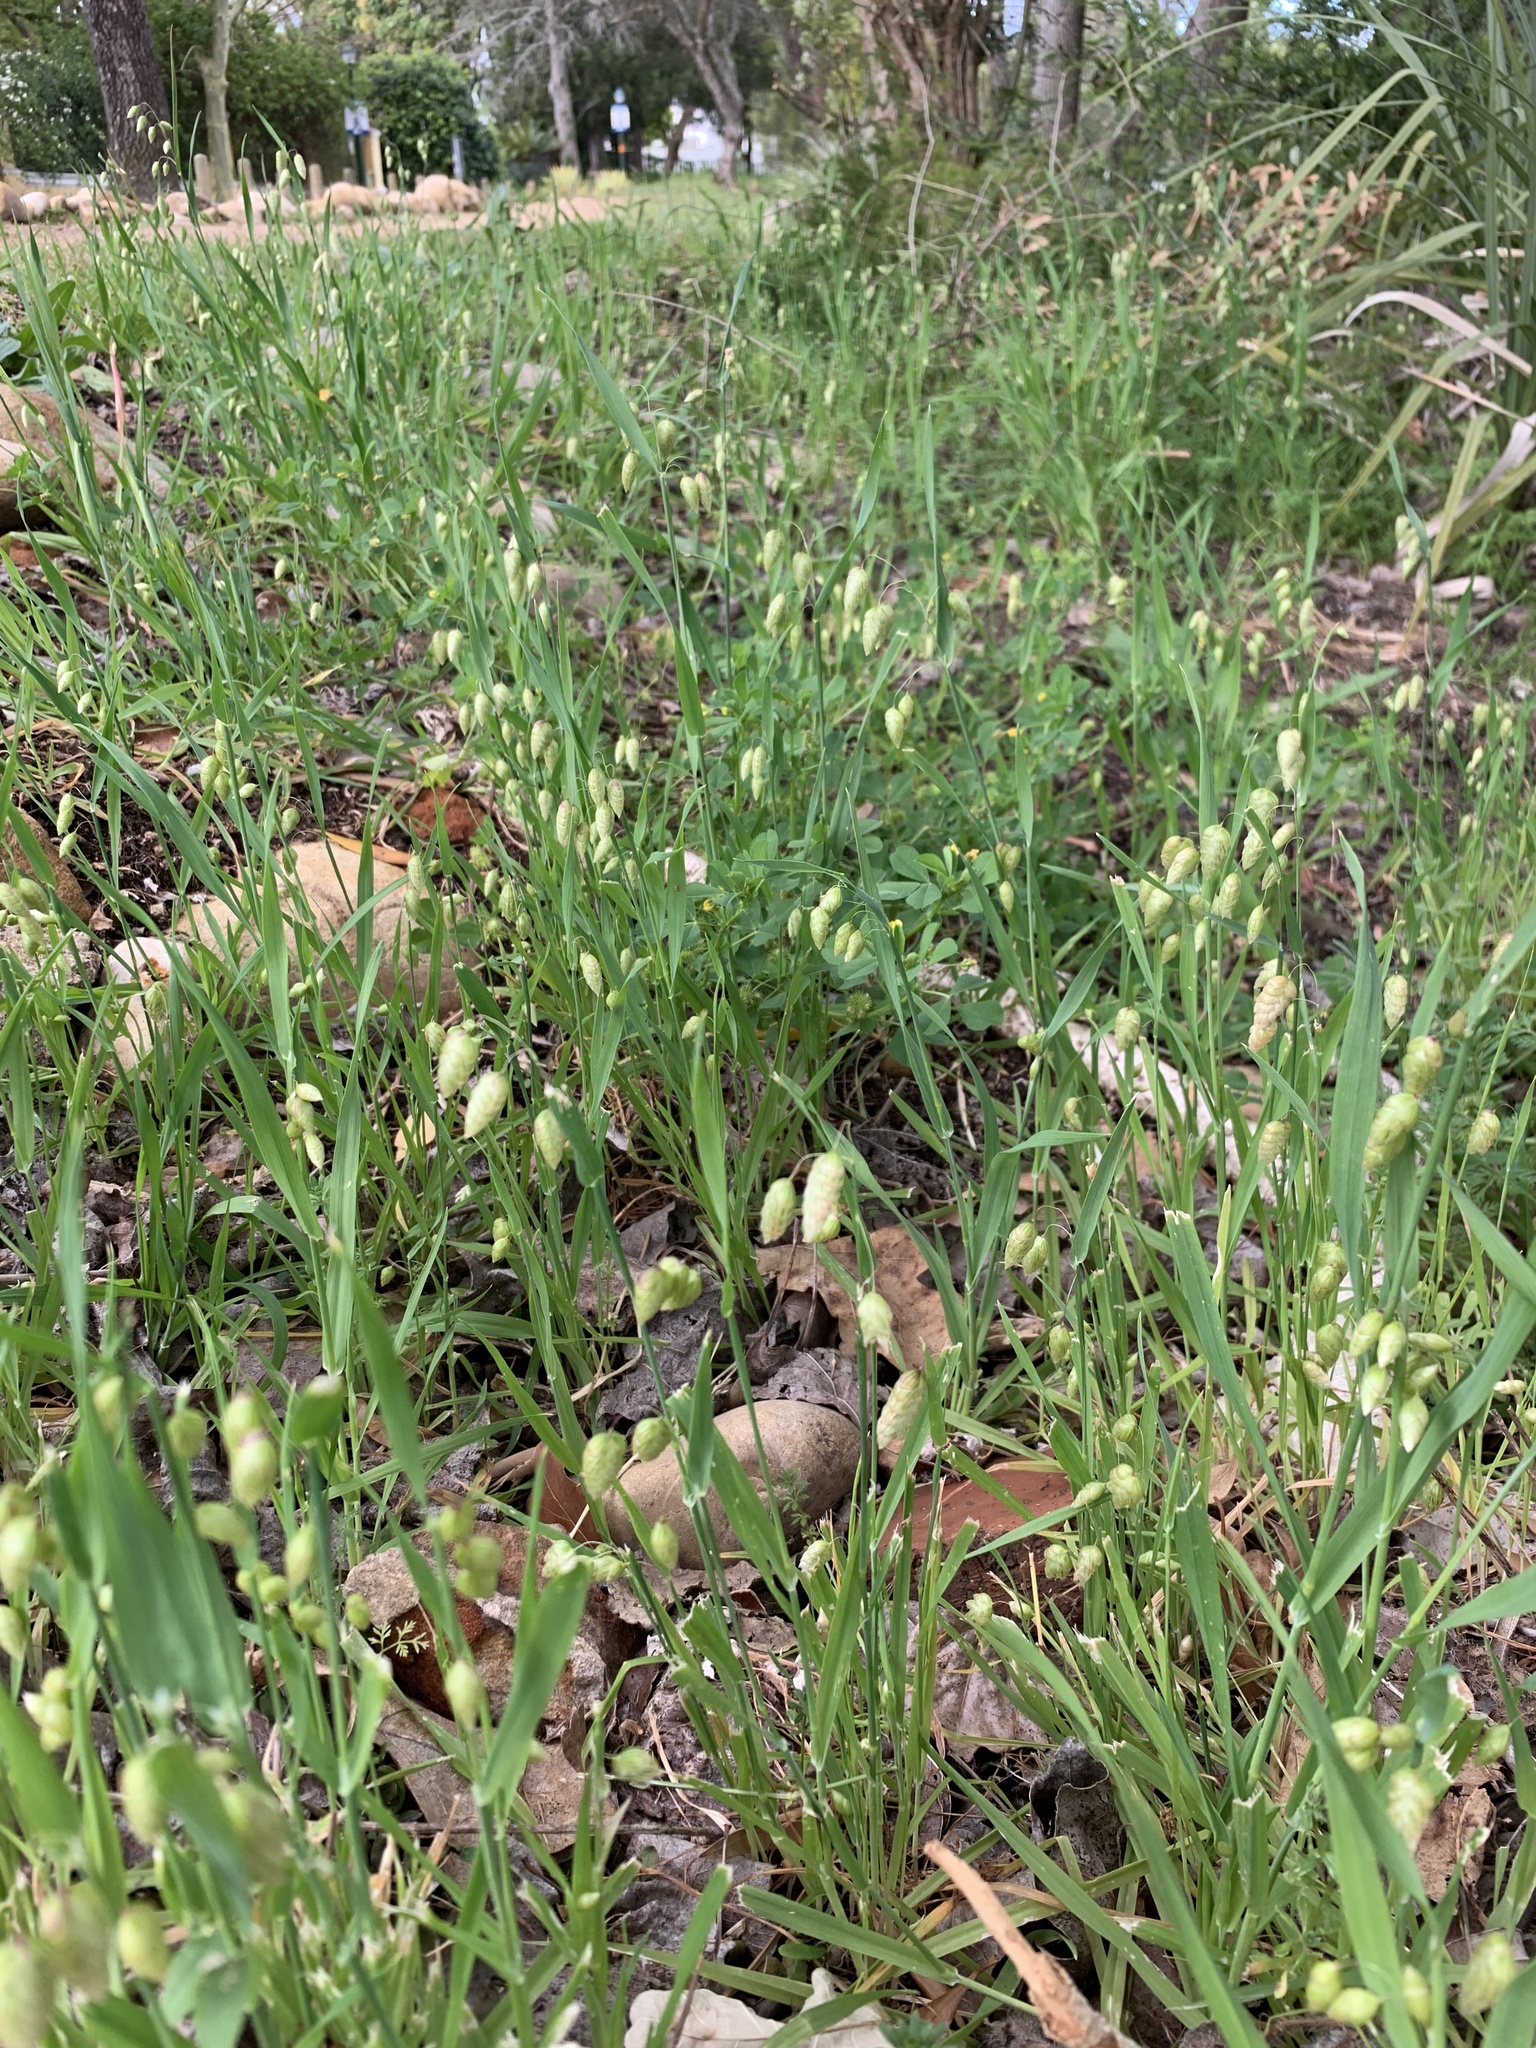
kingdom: Plantae
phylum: Tracheophyta
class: Liliopsida
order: Poales
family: Poaceae
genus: Briza
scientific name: Briza maxima
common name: Big quakinggrass
